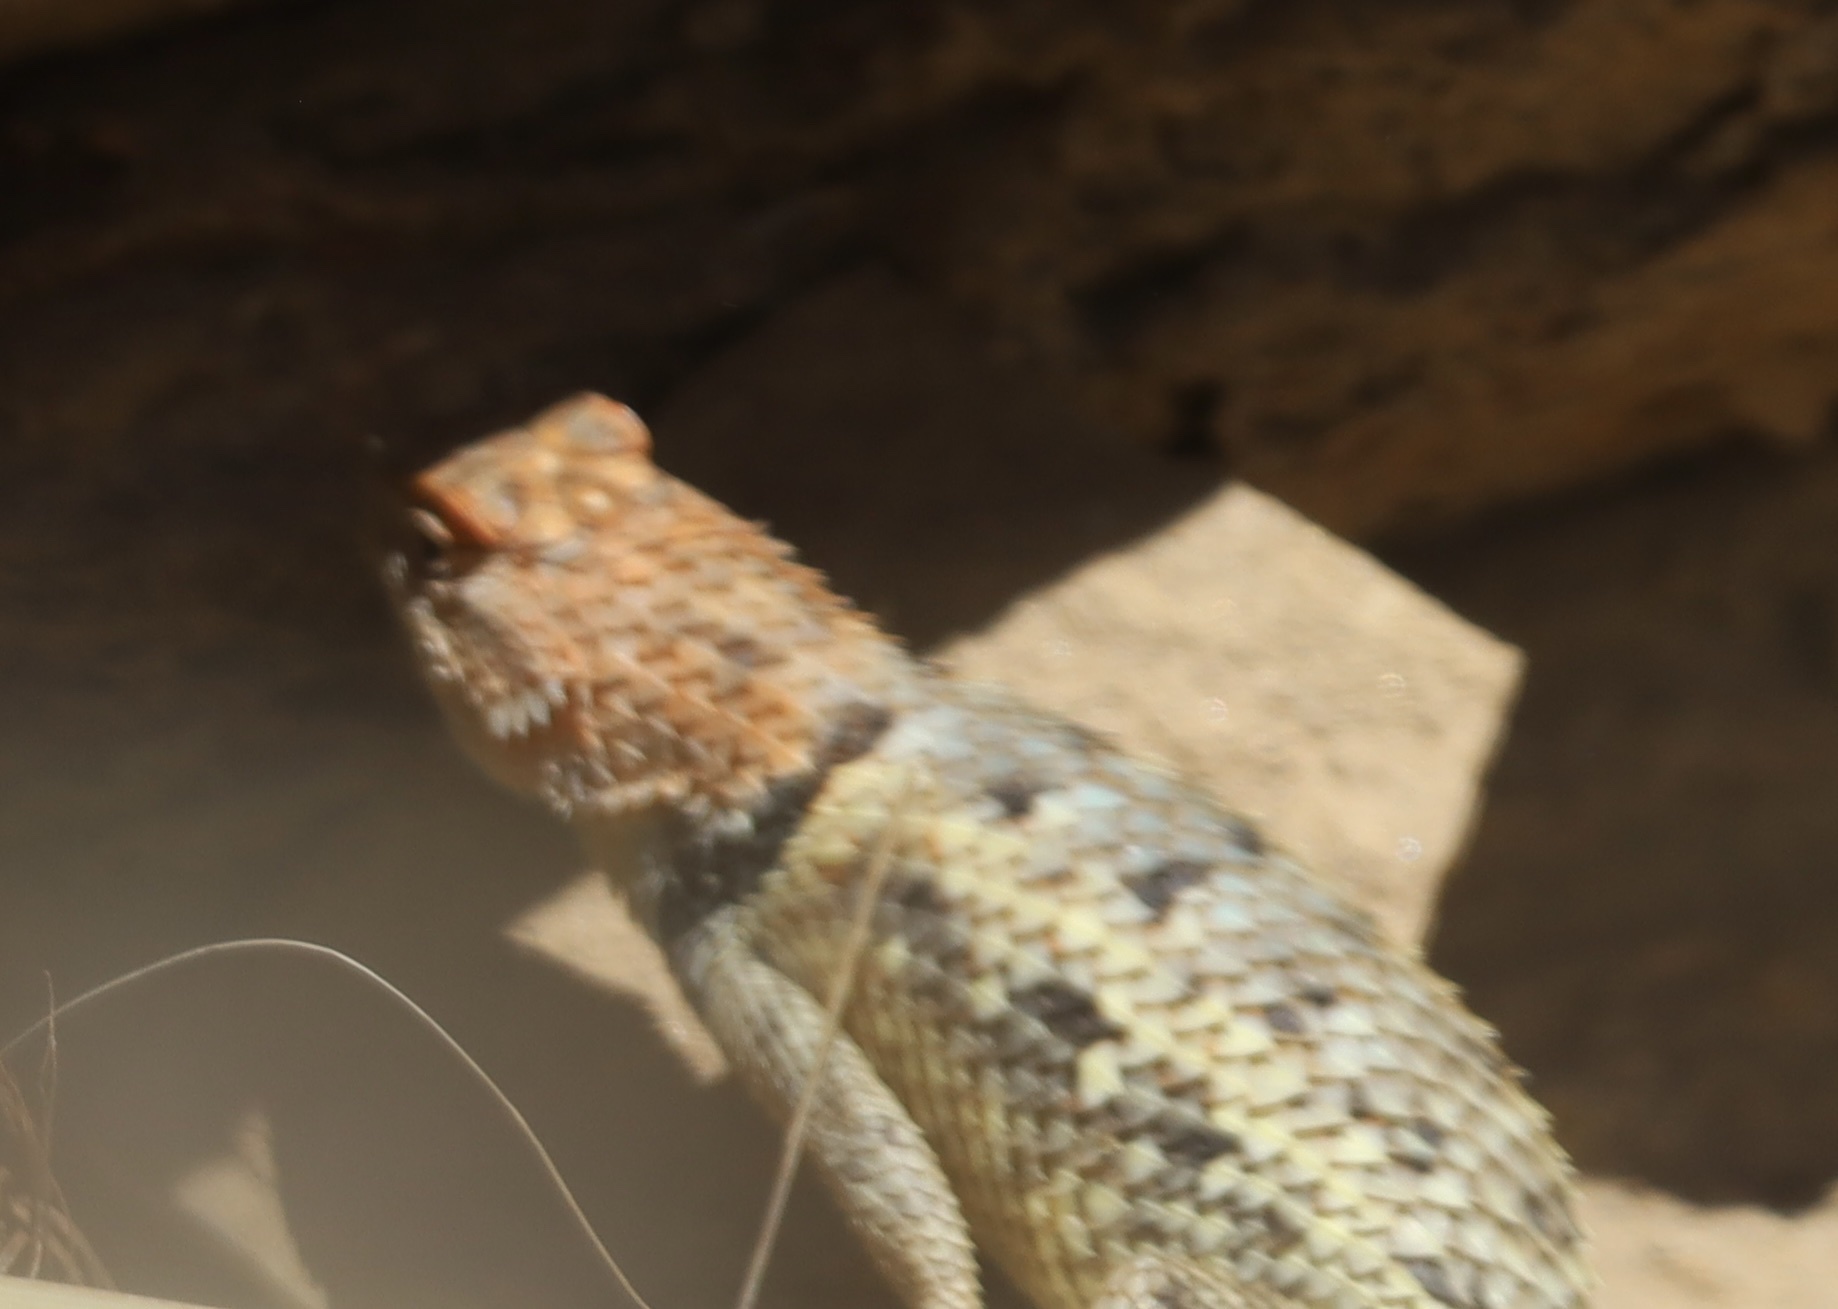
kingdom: Animalia
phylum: Chordata
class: Squamata
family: Phrynosomatidae
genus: Sceloporus
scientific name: Sceloporus magister
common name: Desert spiny lizard
